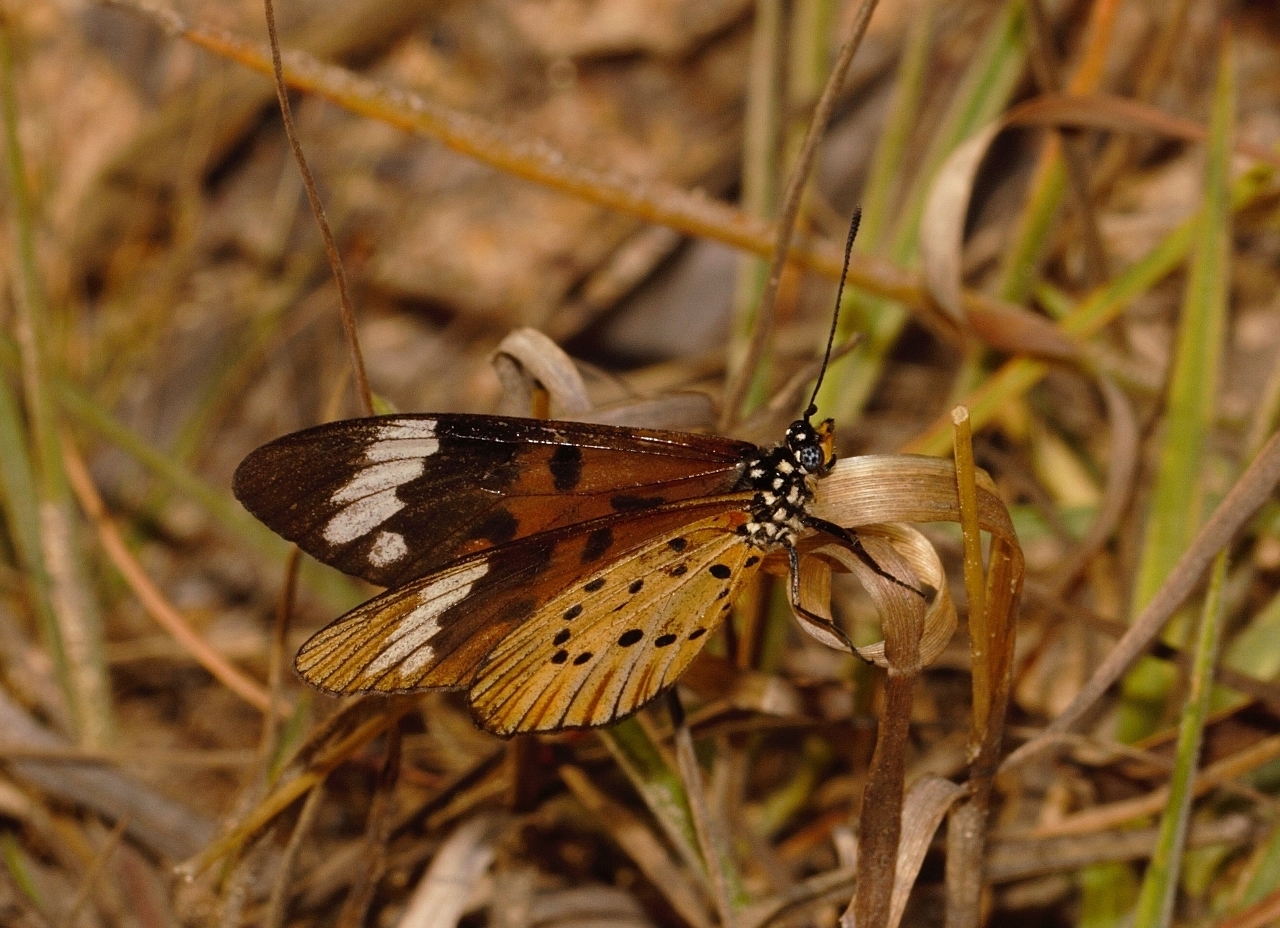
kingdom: Animalia
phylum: Arthropoda
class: Insecta
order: Lepidoptera
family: Nymphalidae
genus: Acraea
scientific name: Acraea Telchinia encedon
